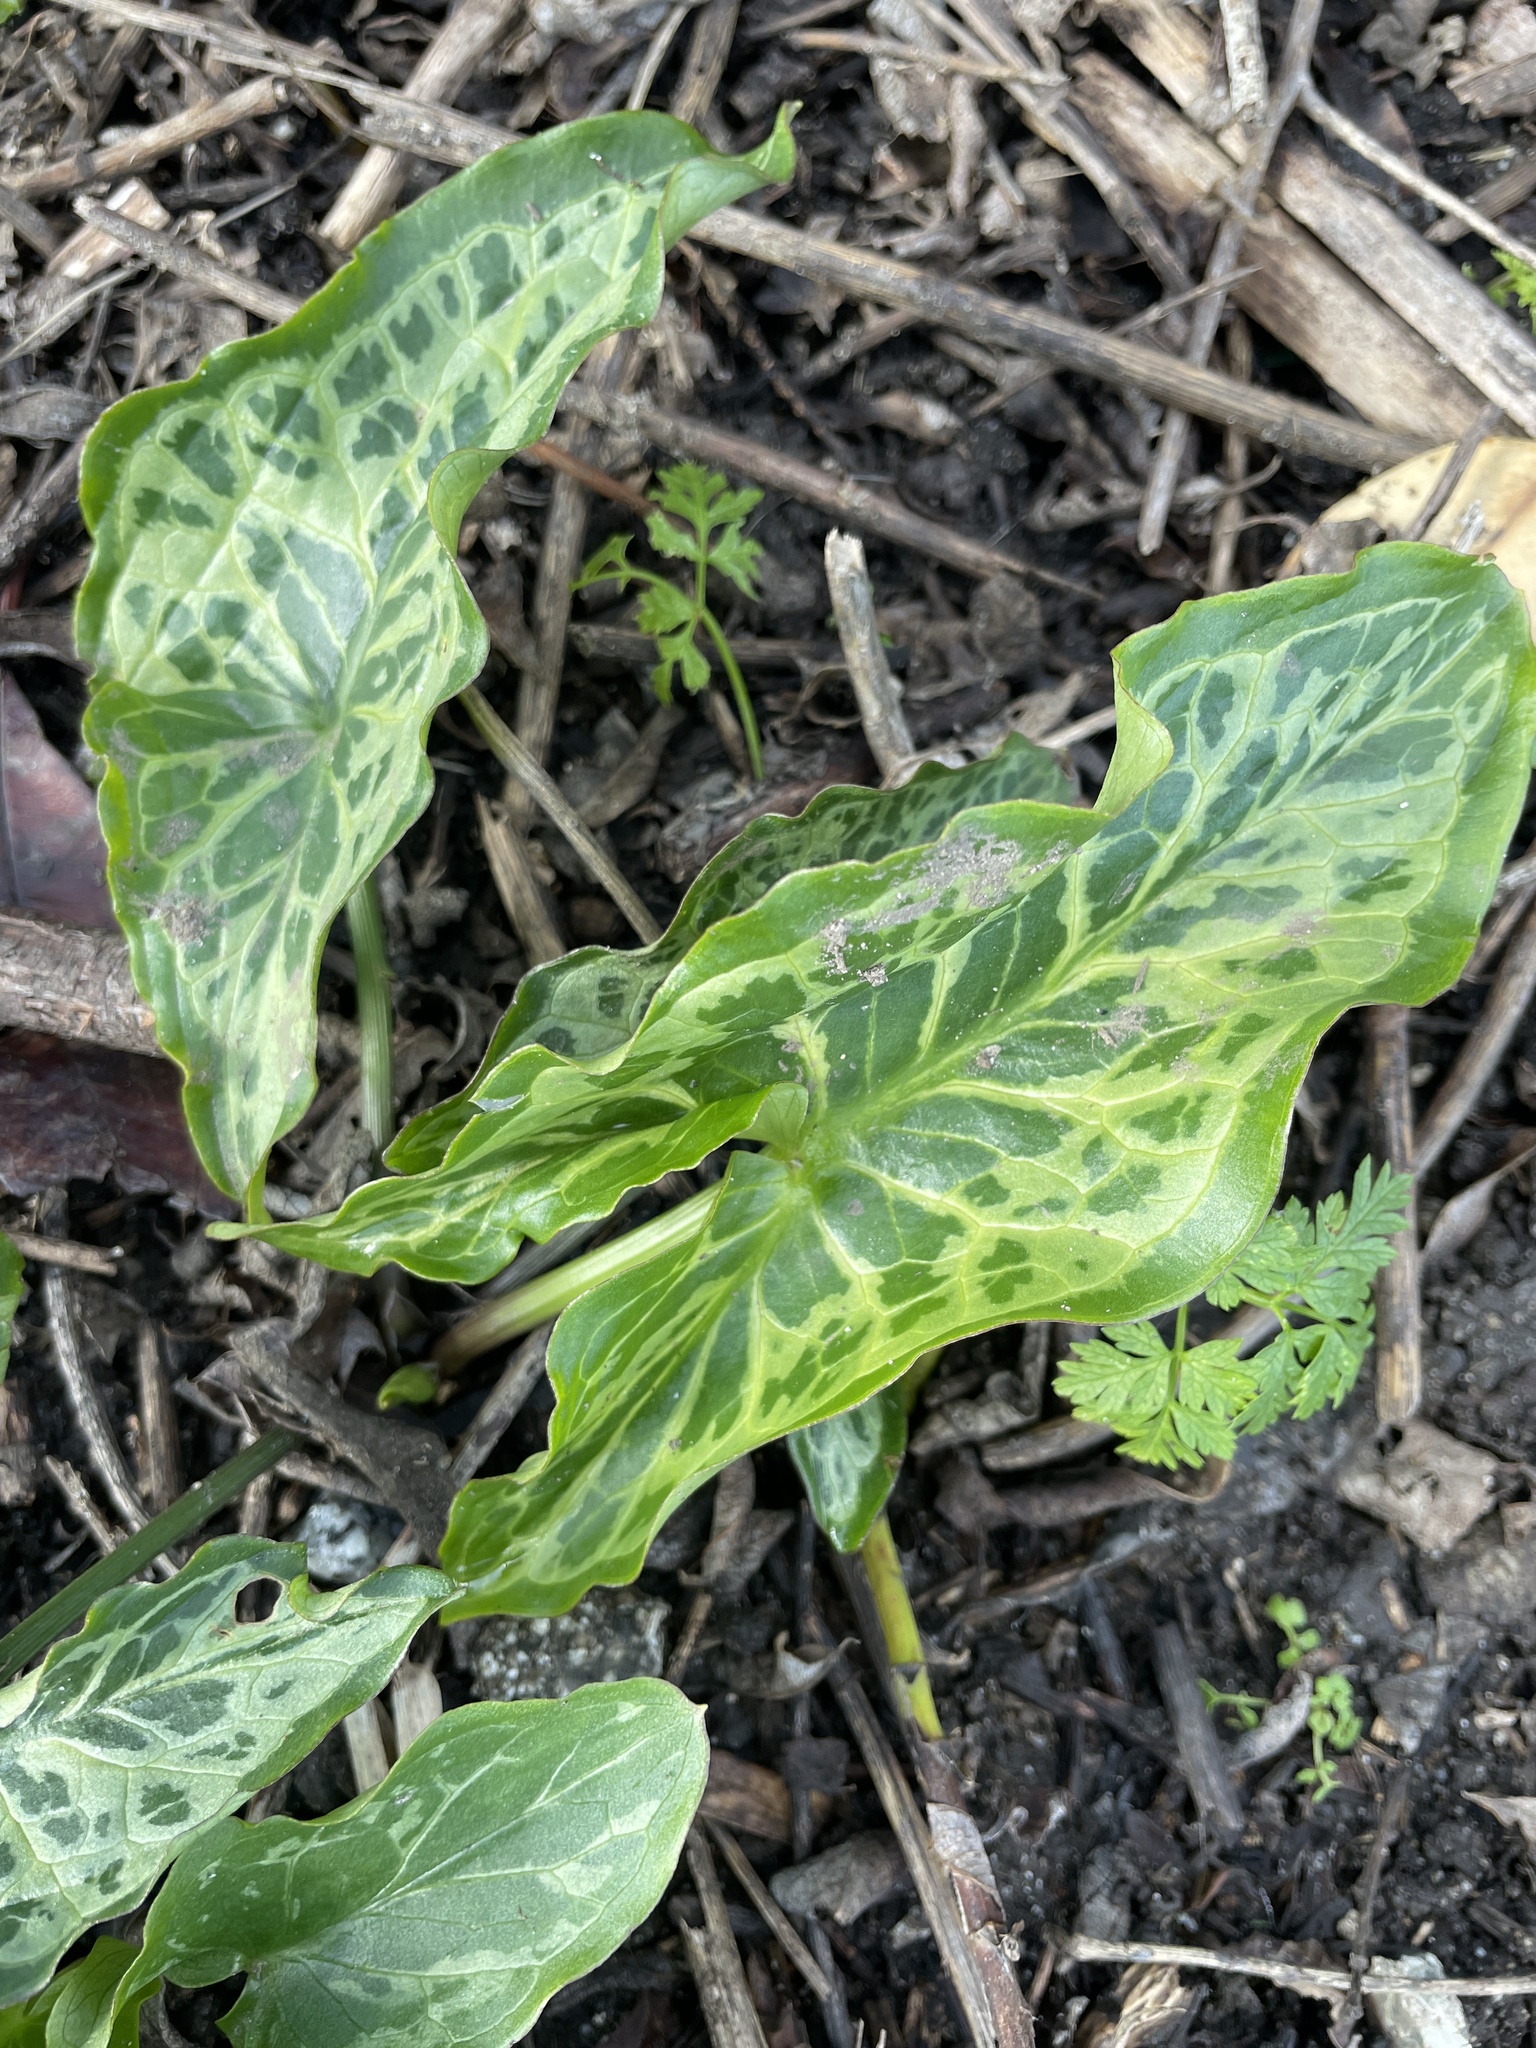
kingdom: Plantae
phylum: Tracheophyta
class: Liliopsida
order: Alismatales
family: Araceae
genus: Arum
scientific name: Arum italicum
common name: Italian lords-and-ladies
